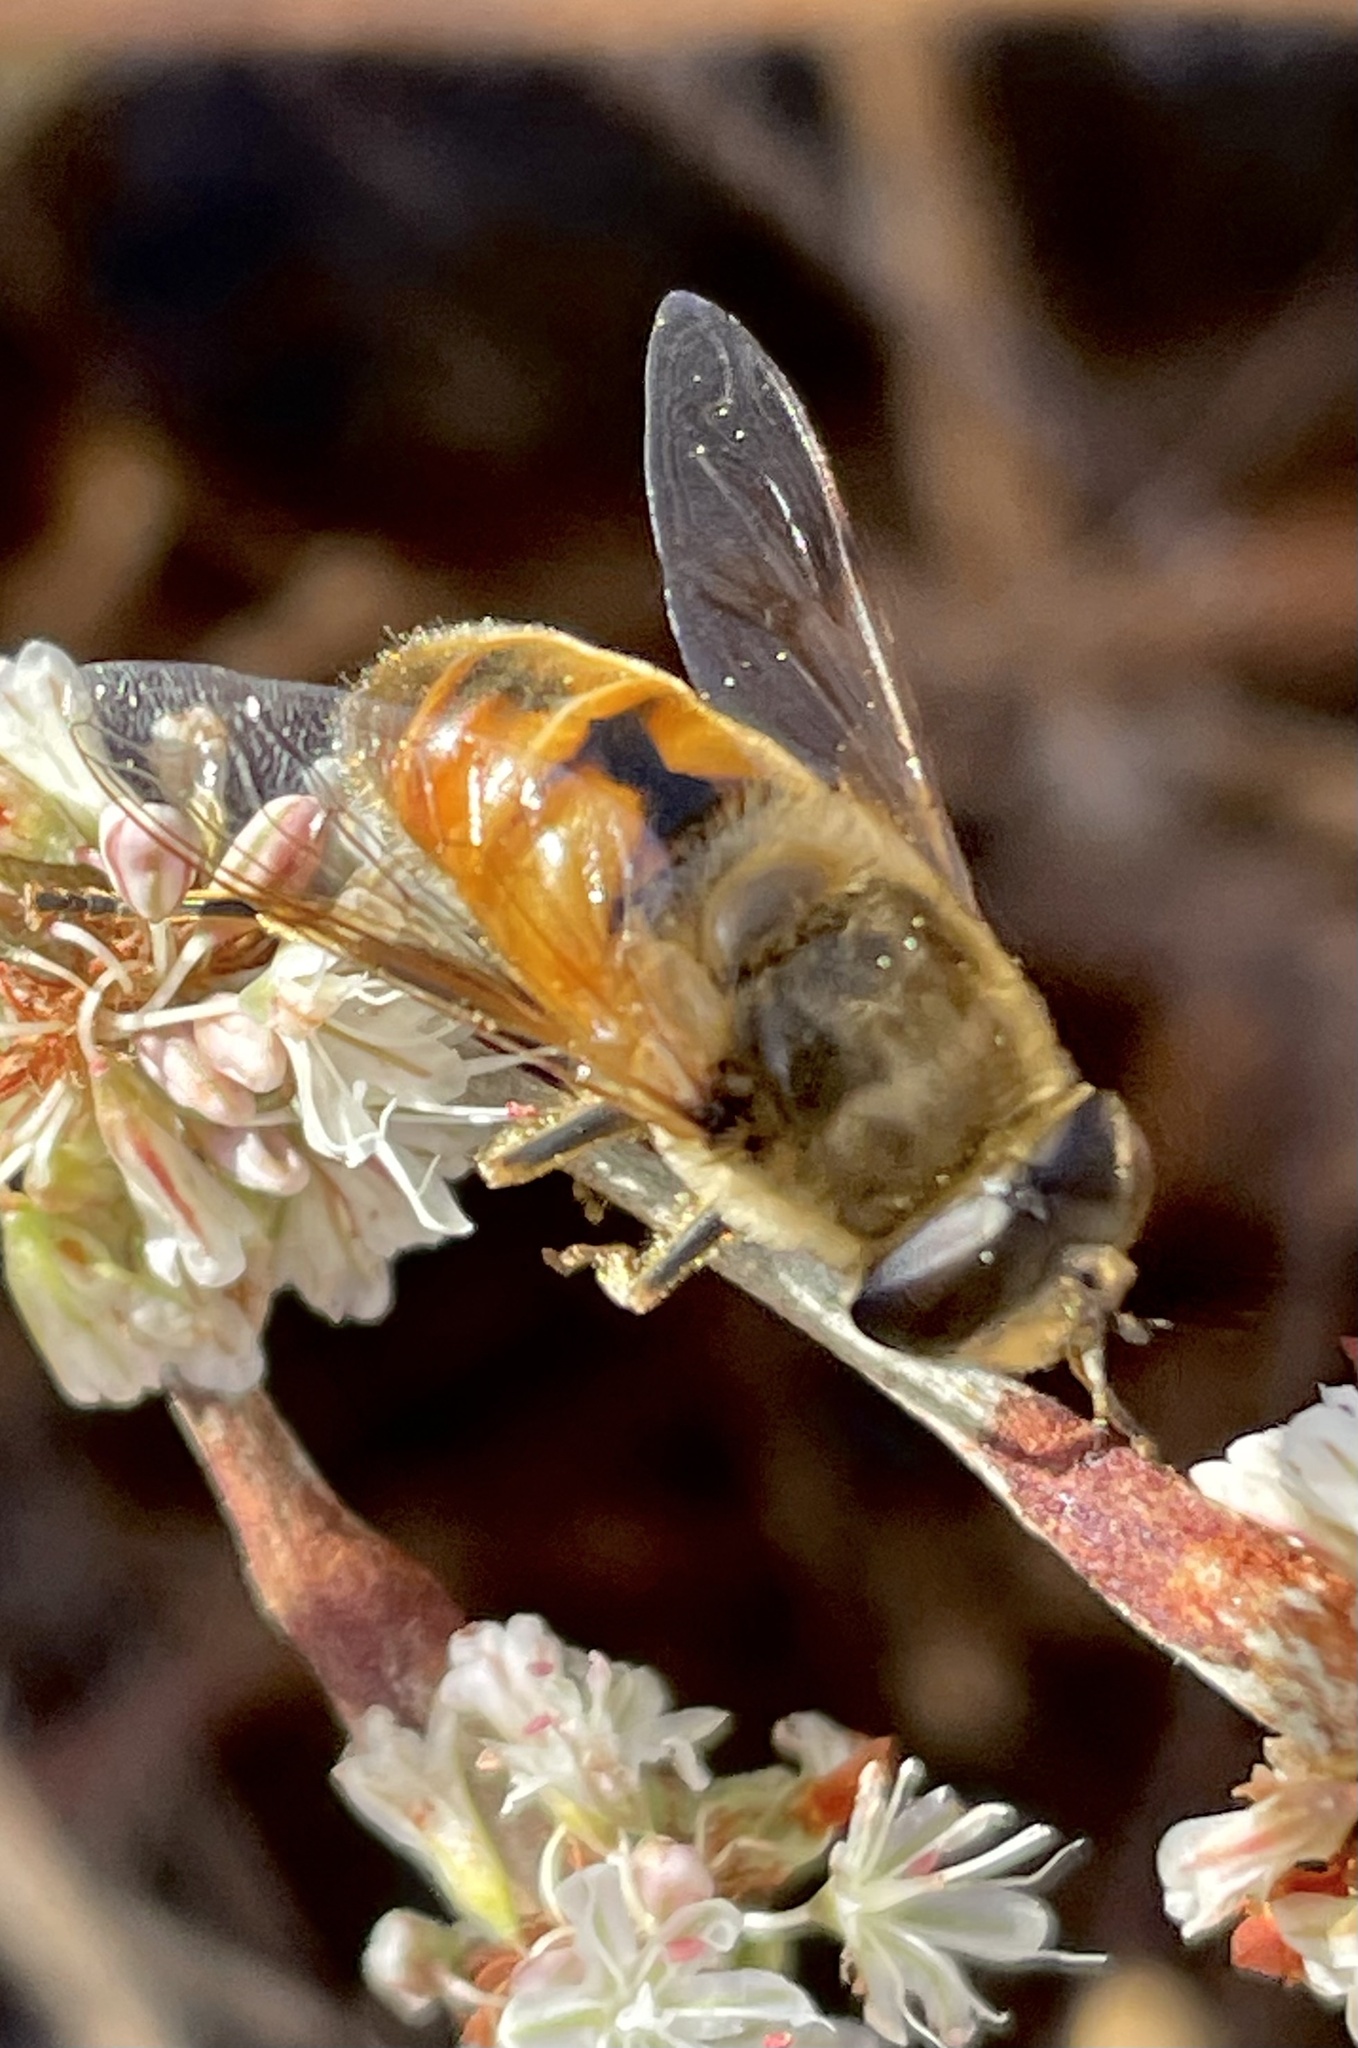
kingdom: Animalia
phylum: Arthropoda
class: Insecta
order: Diptera
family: Syrphidae
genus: Eristalis
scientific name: Eristalis tenax
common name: Drone fly
